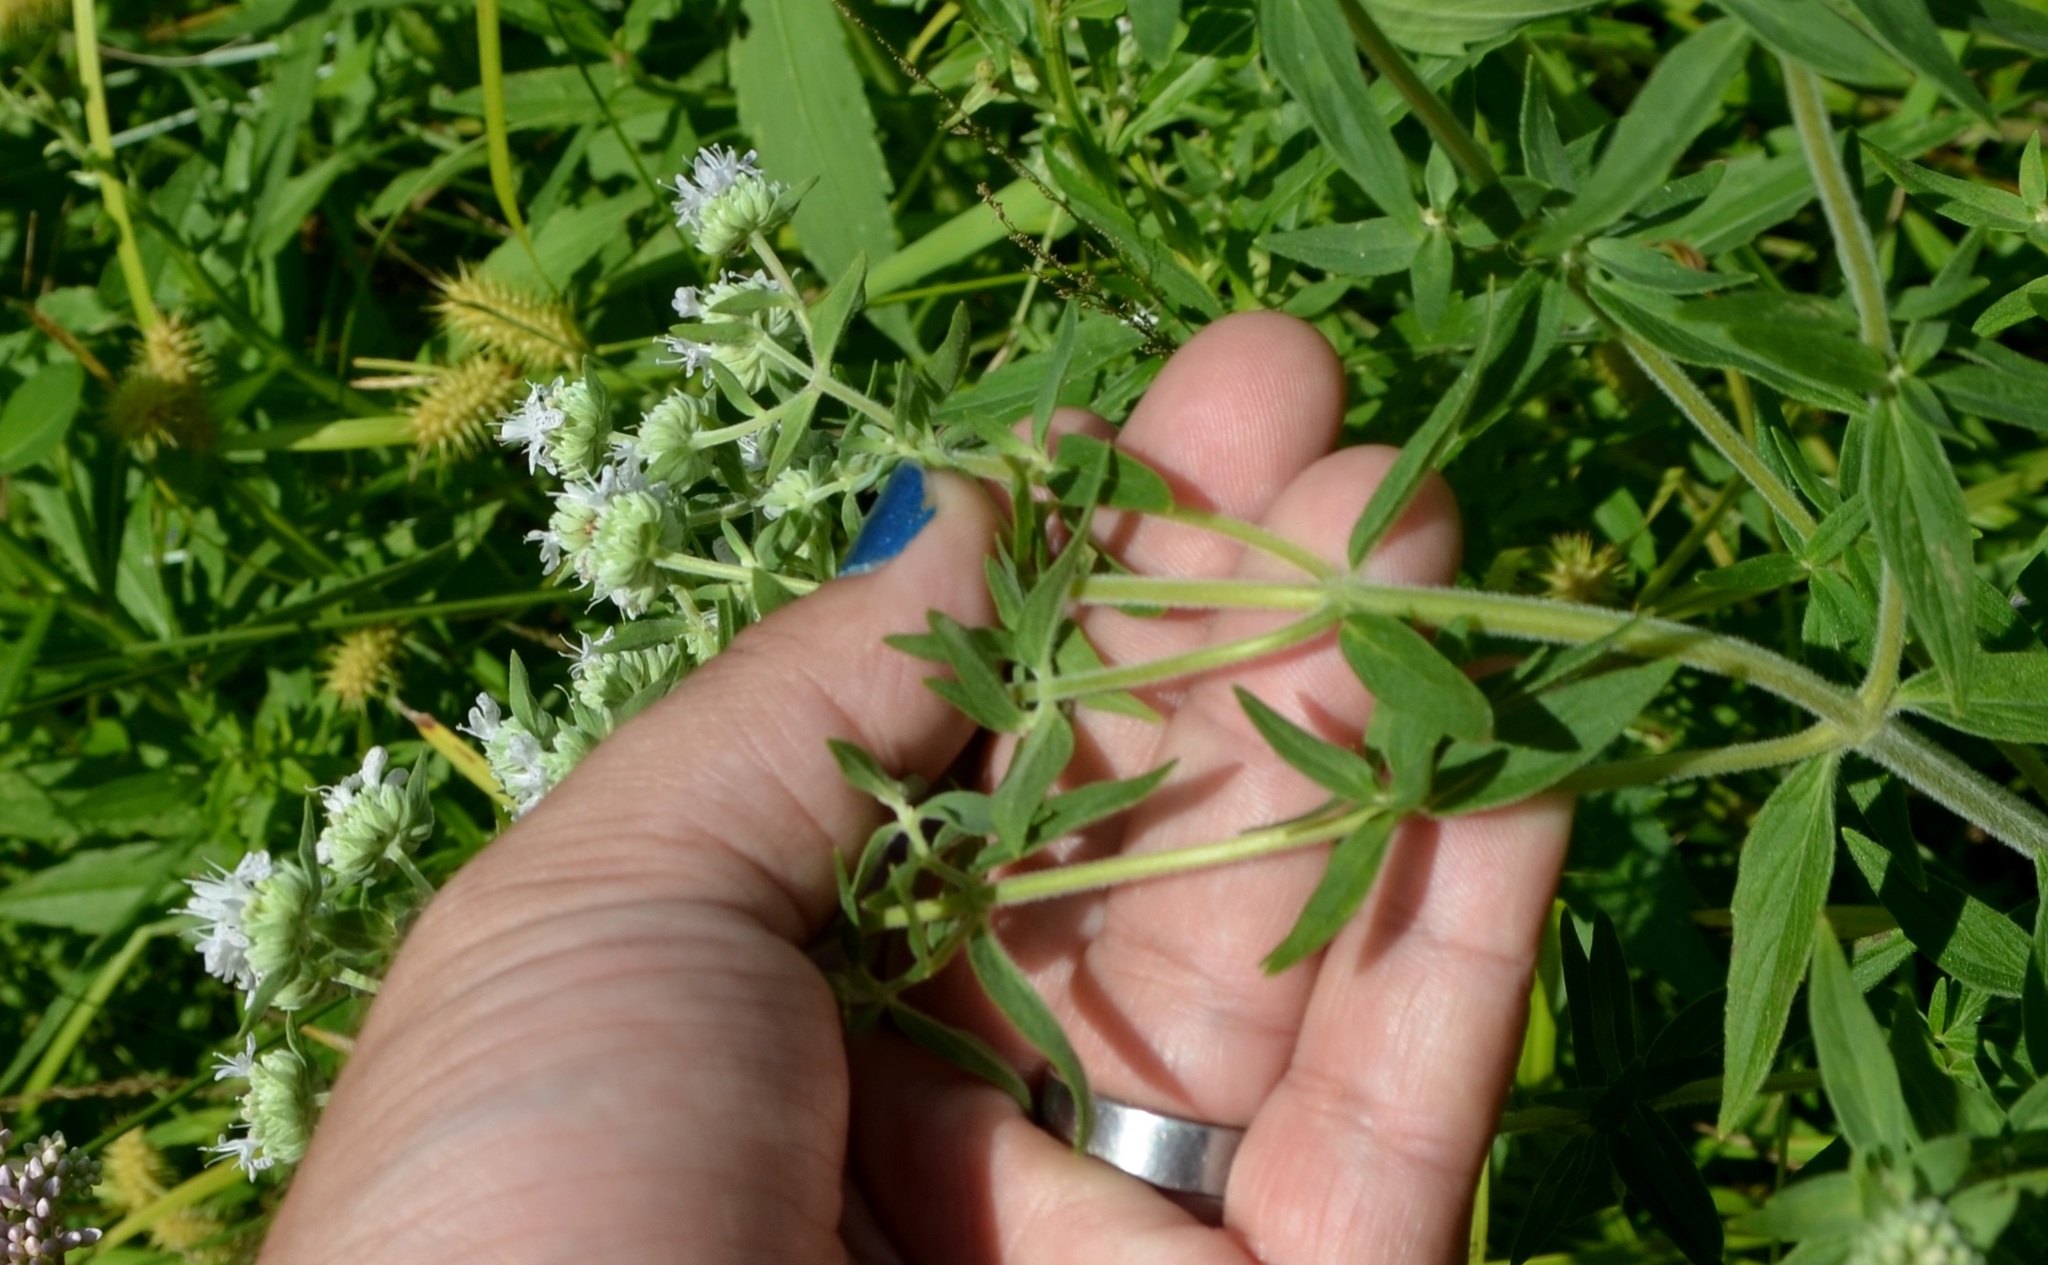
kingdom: Plantae
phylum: Tracheophyta
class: Magnoliopsida
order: Lamiales
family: Lamiaceae
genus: Pycnanthemum
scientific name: Pycnanthemum verticillatum
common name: Whorled mountain-mint
